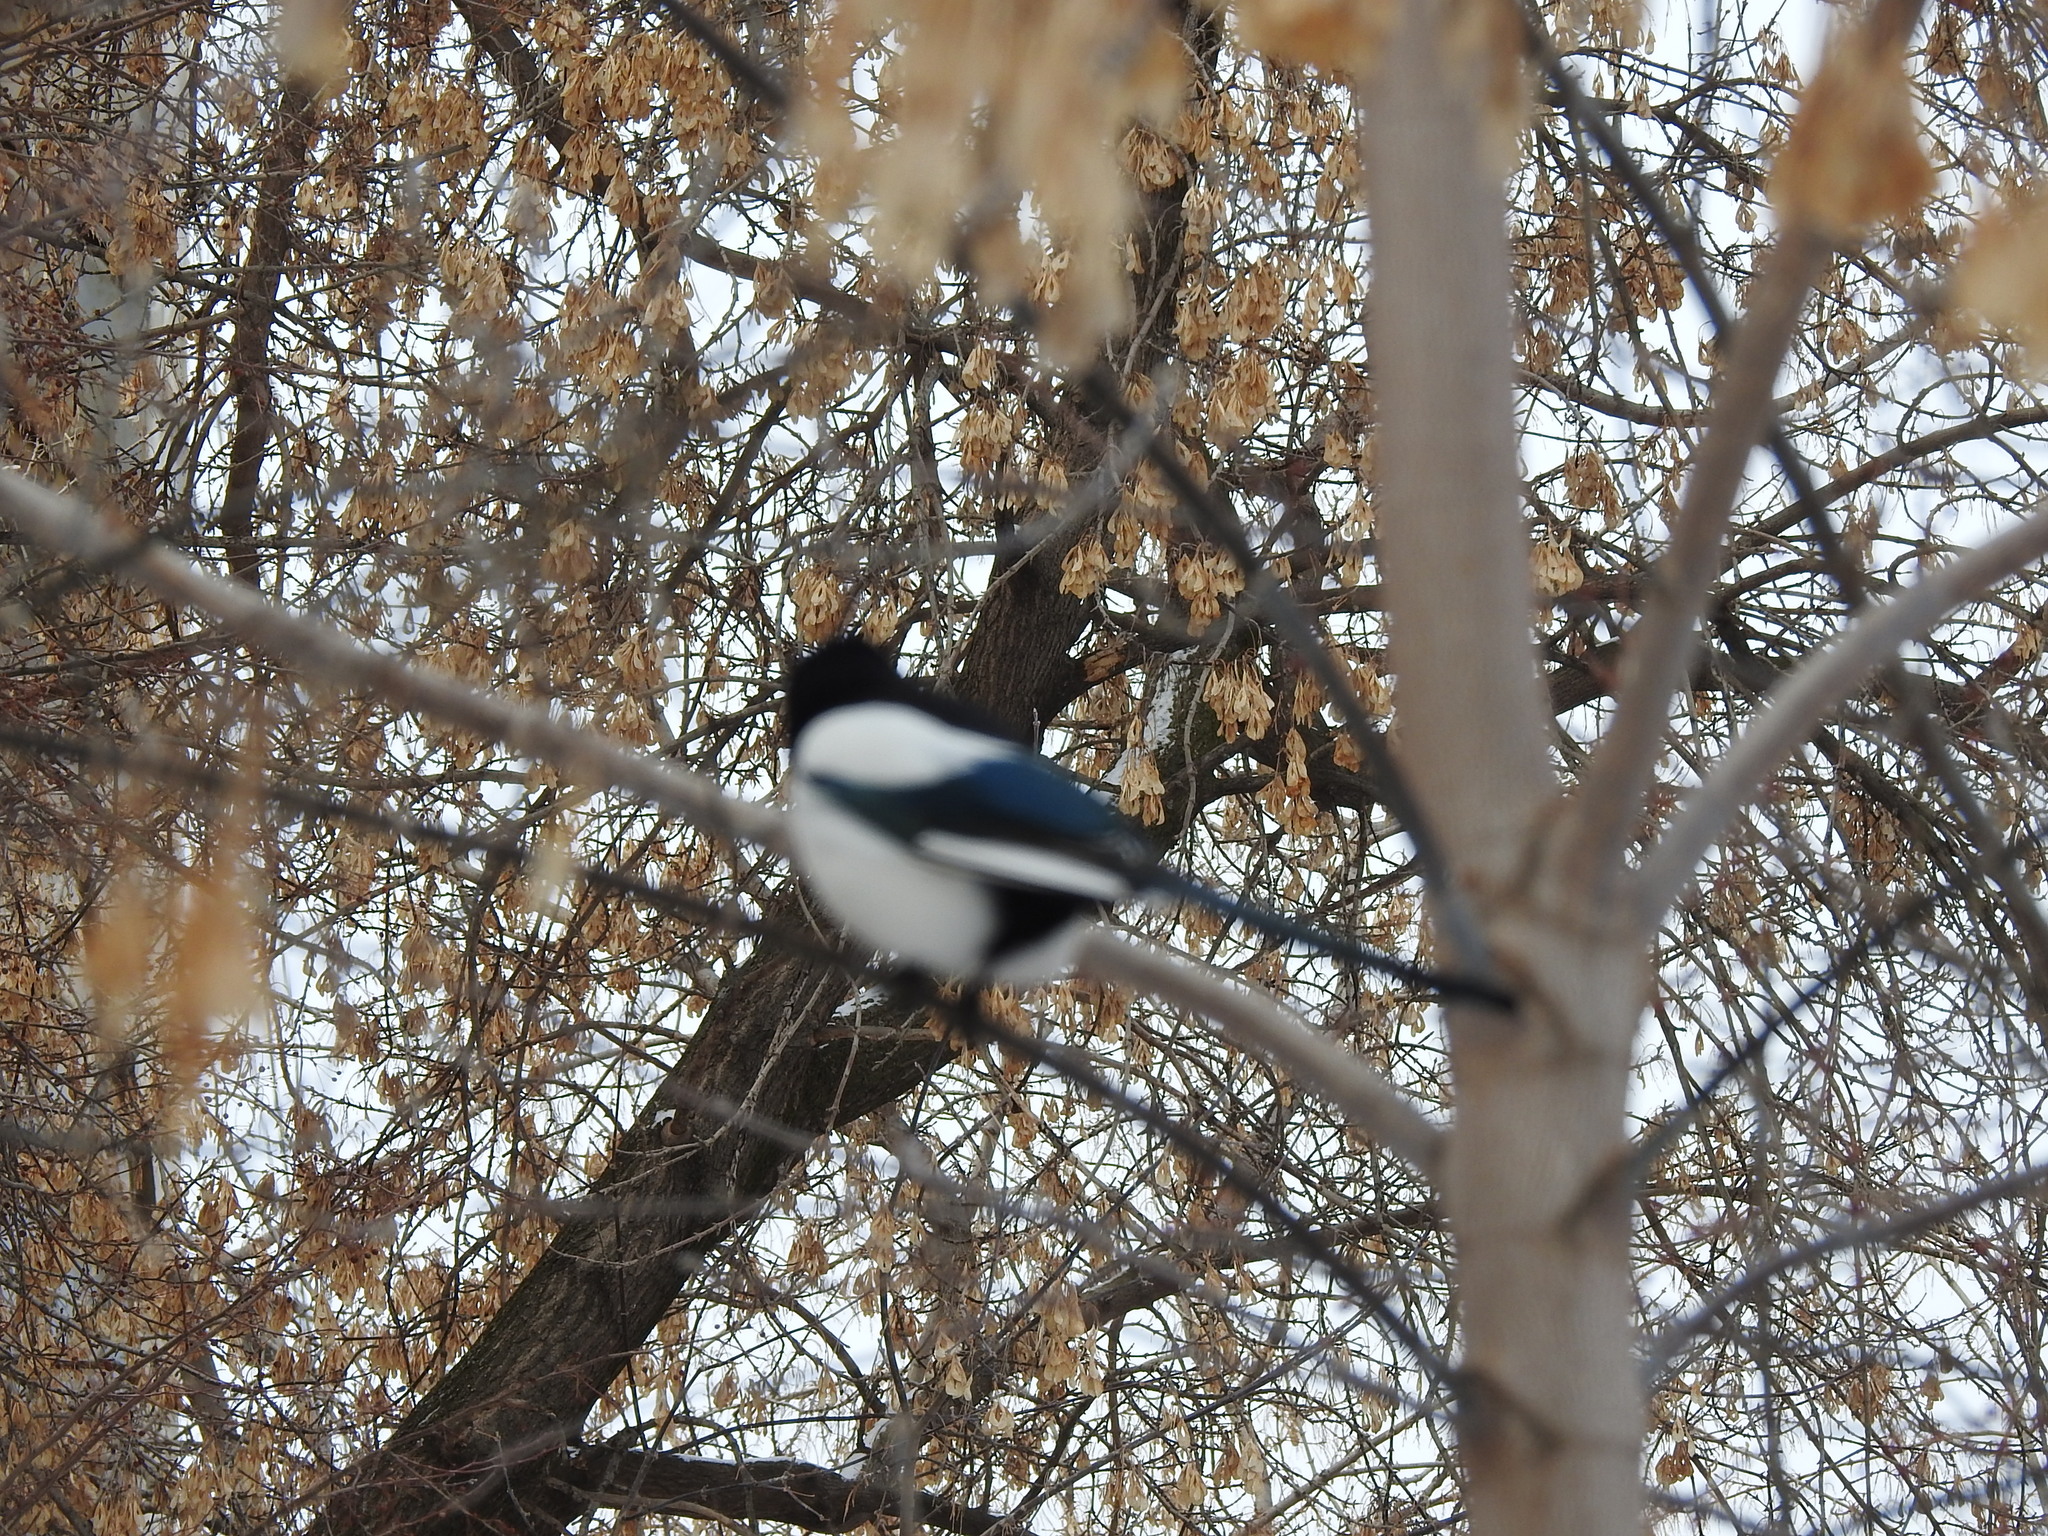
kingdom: Animalia
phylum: Chordata
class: Aves
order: Passeriformes
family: Corvidae
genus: Pica
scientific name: Pica pica
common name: Eurasian magpie
